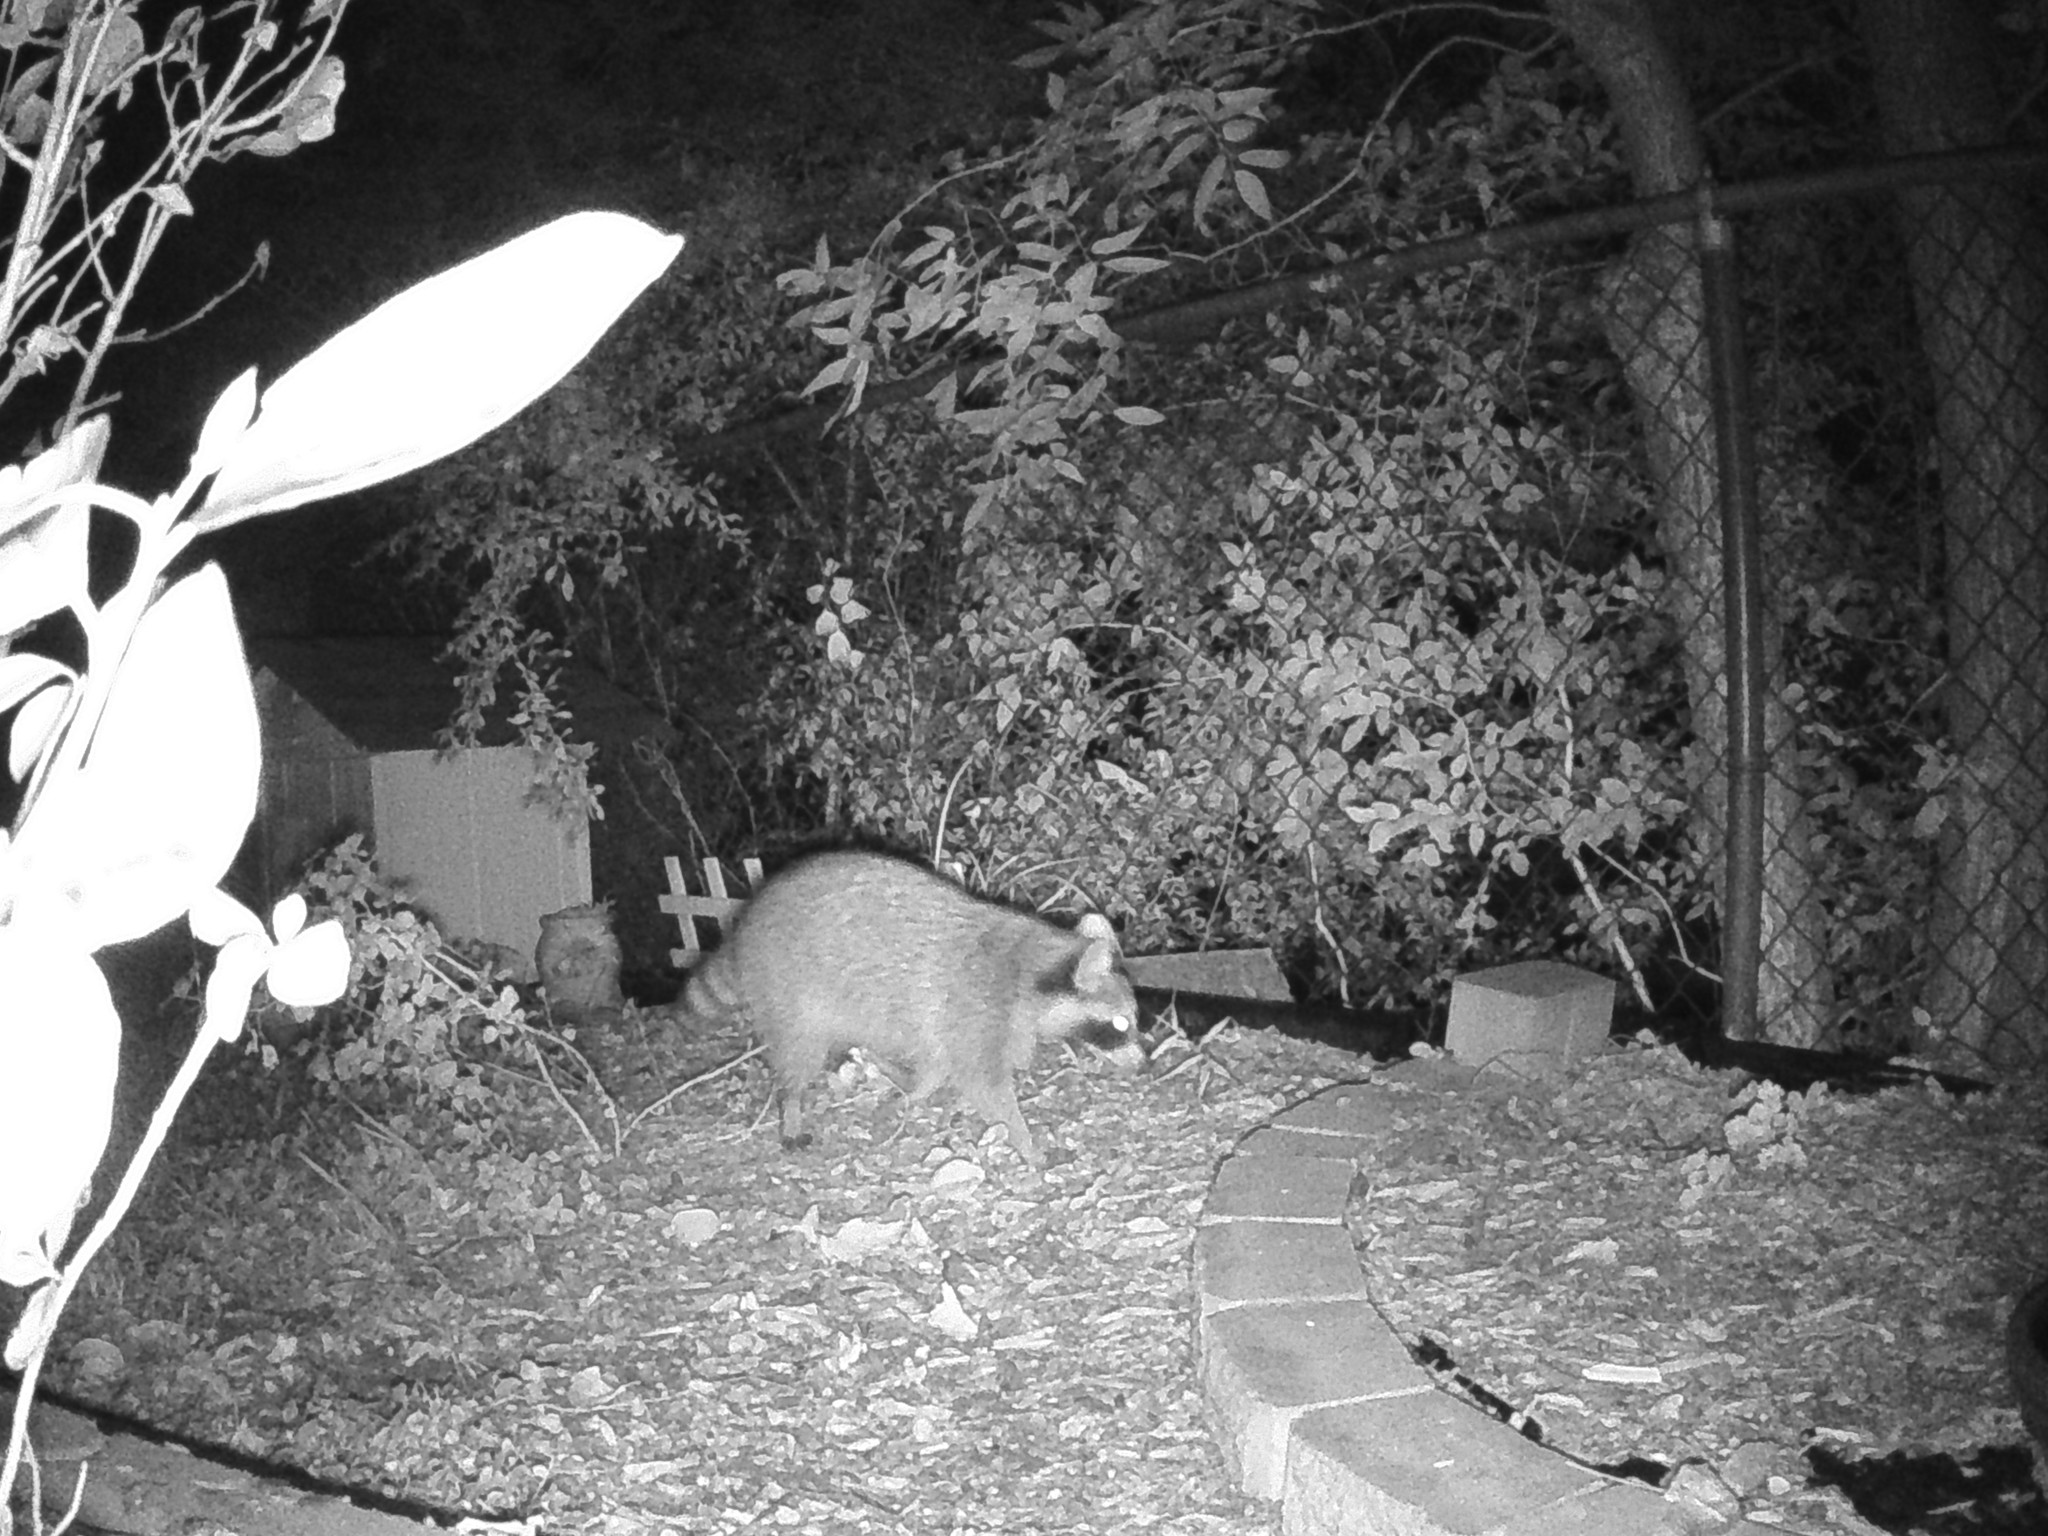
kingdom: Animalia
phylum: Chordata
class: Mammalia
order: Carnivora
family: Procyonidae
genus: Procyon
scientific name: Procyon lotor
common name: Raccoon
